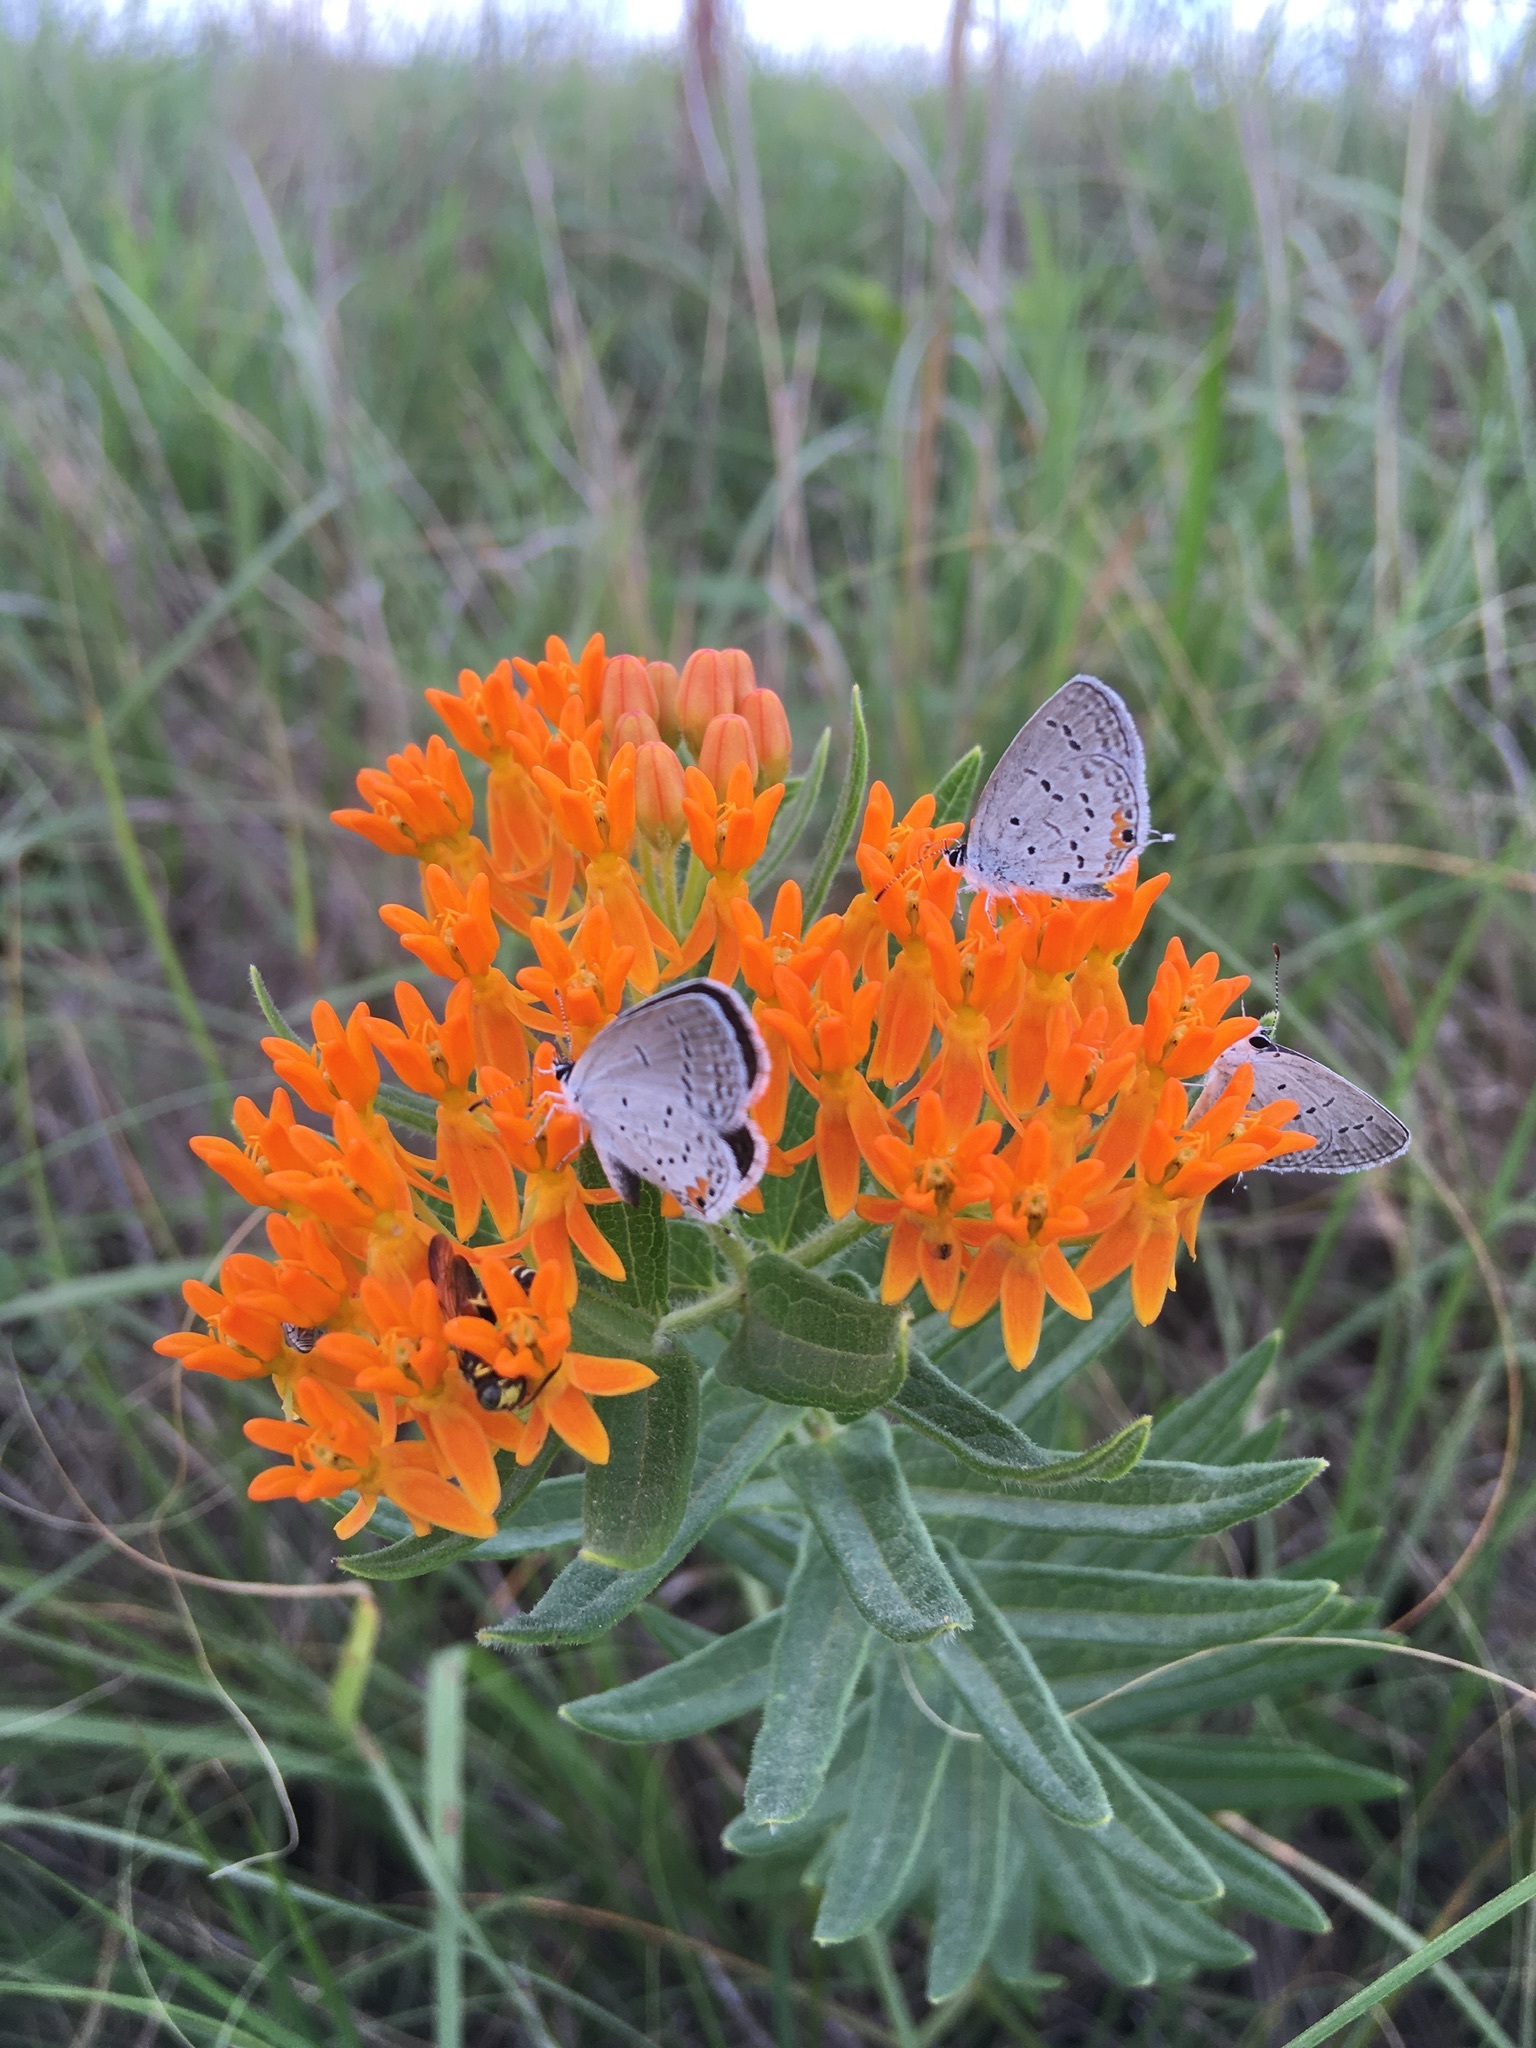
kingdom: Animalia
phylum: Arthropoda
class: Insecta
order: Lepidoptera
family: Lycaenidae
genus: Elkalyce
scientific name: Elkalyce comyntas
